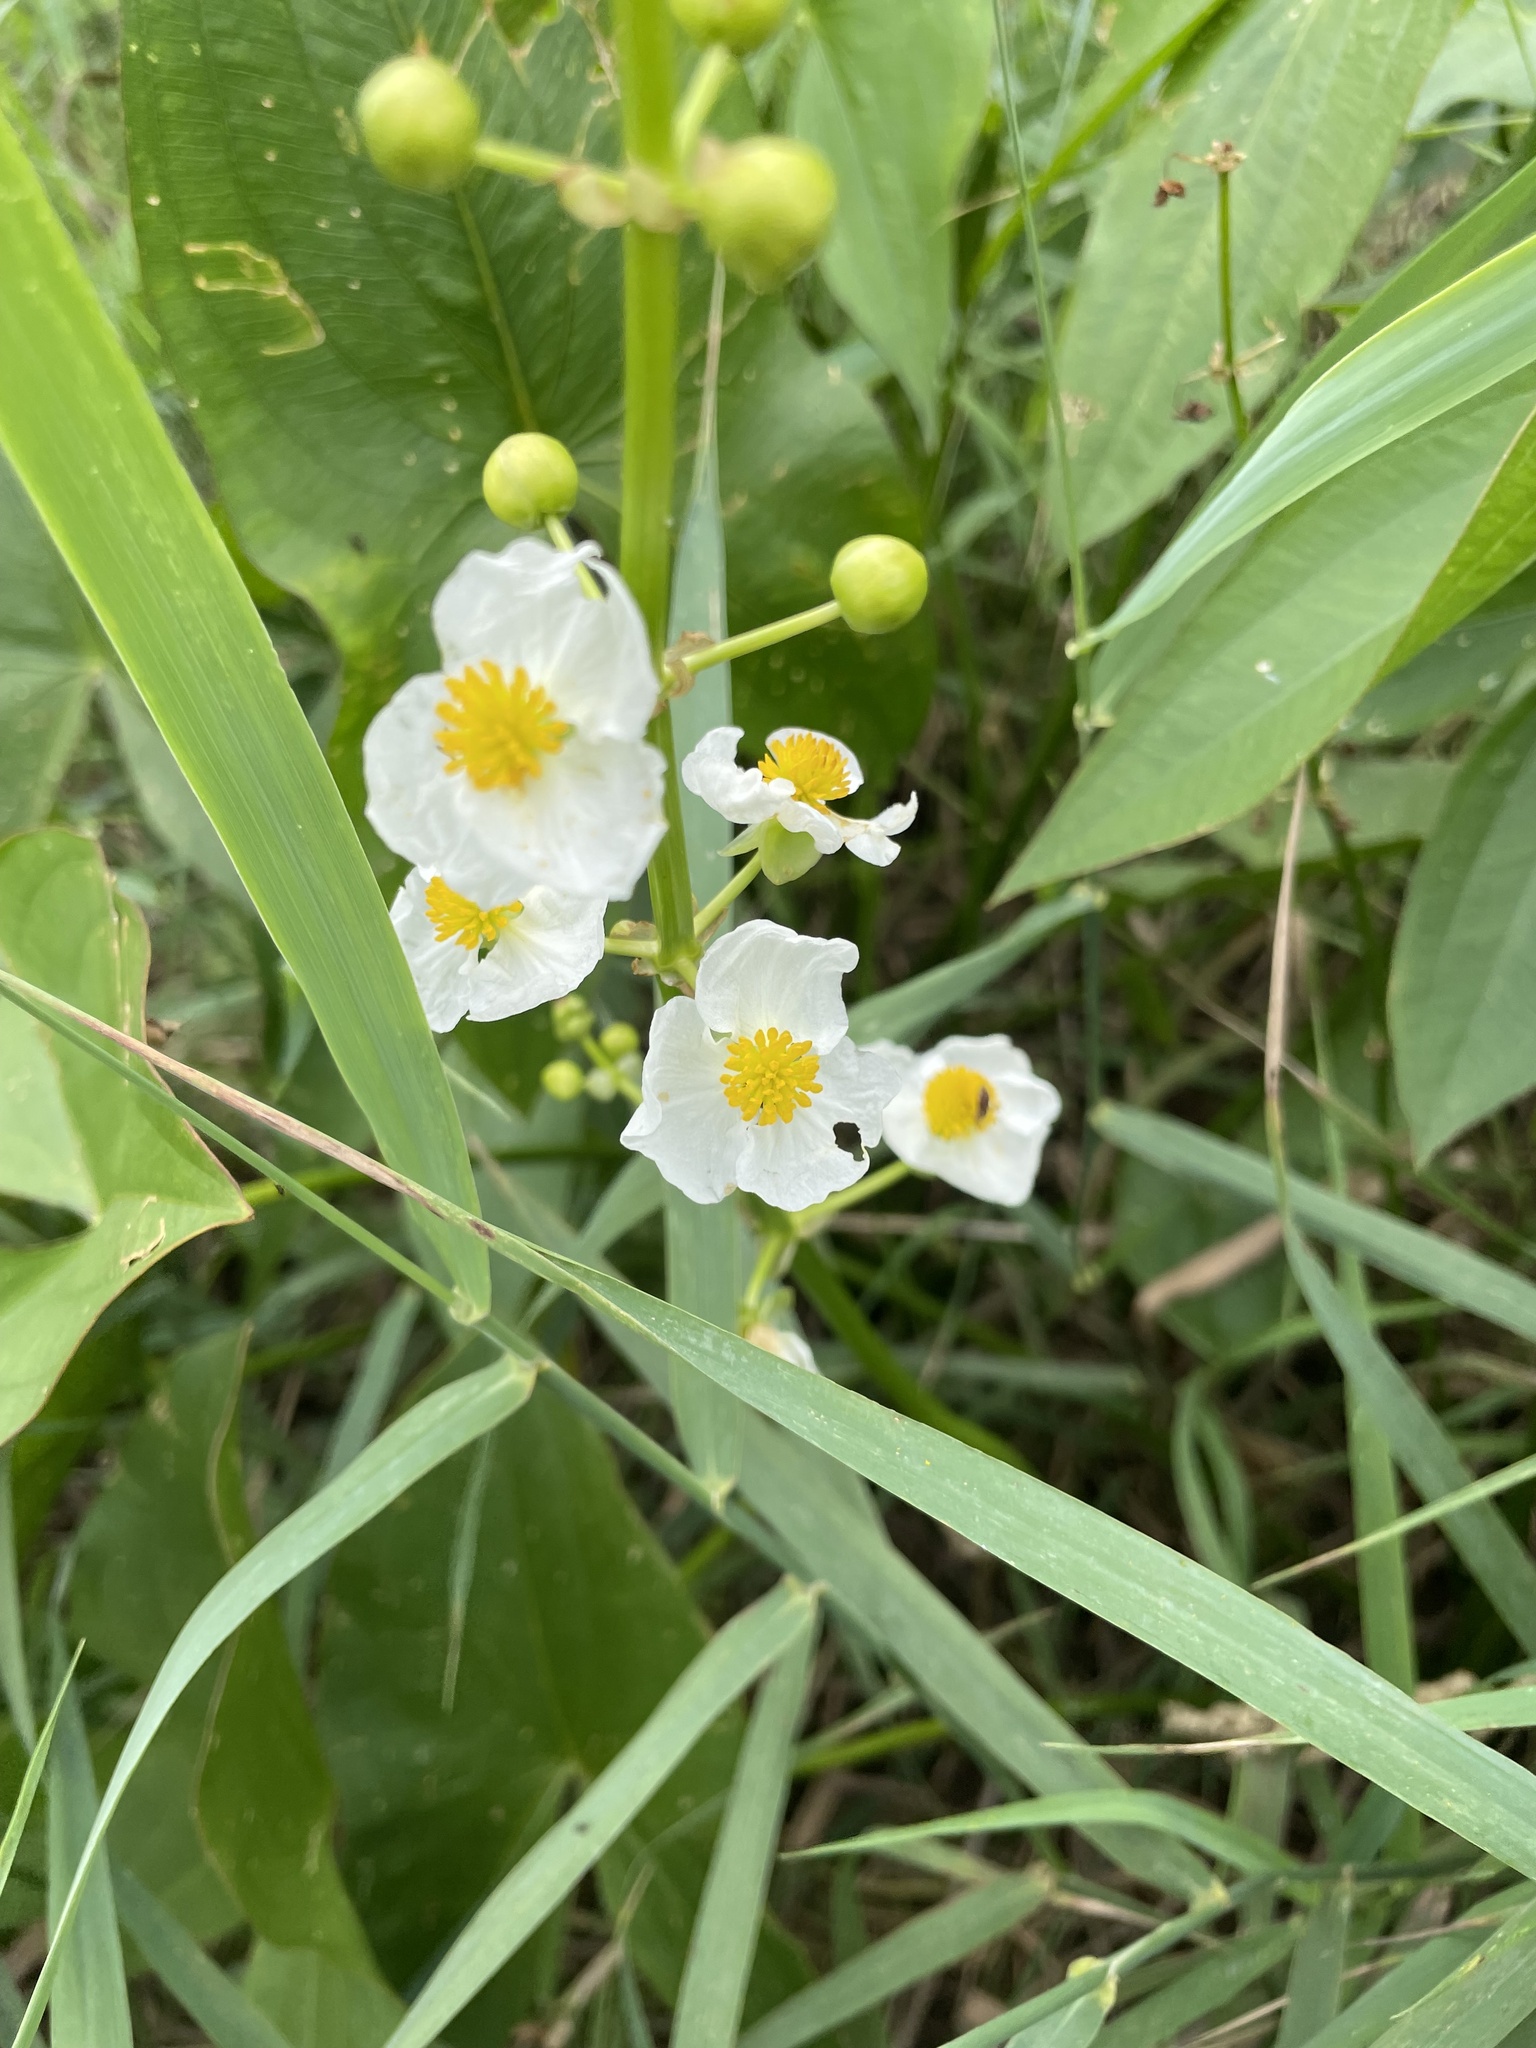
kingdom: Plantae
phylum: Tracheophyta
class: Liliopsida
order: Alismatales
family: Alismataceae
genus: Sagittaria
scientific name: Sagittaria latifolia
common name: Duck-potato
